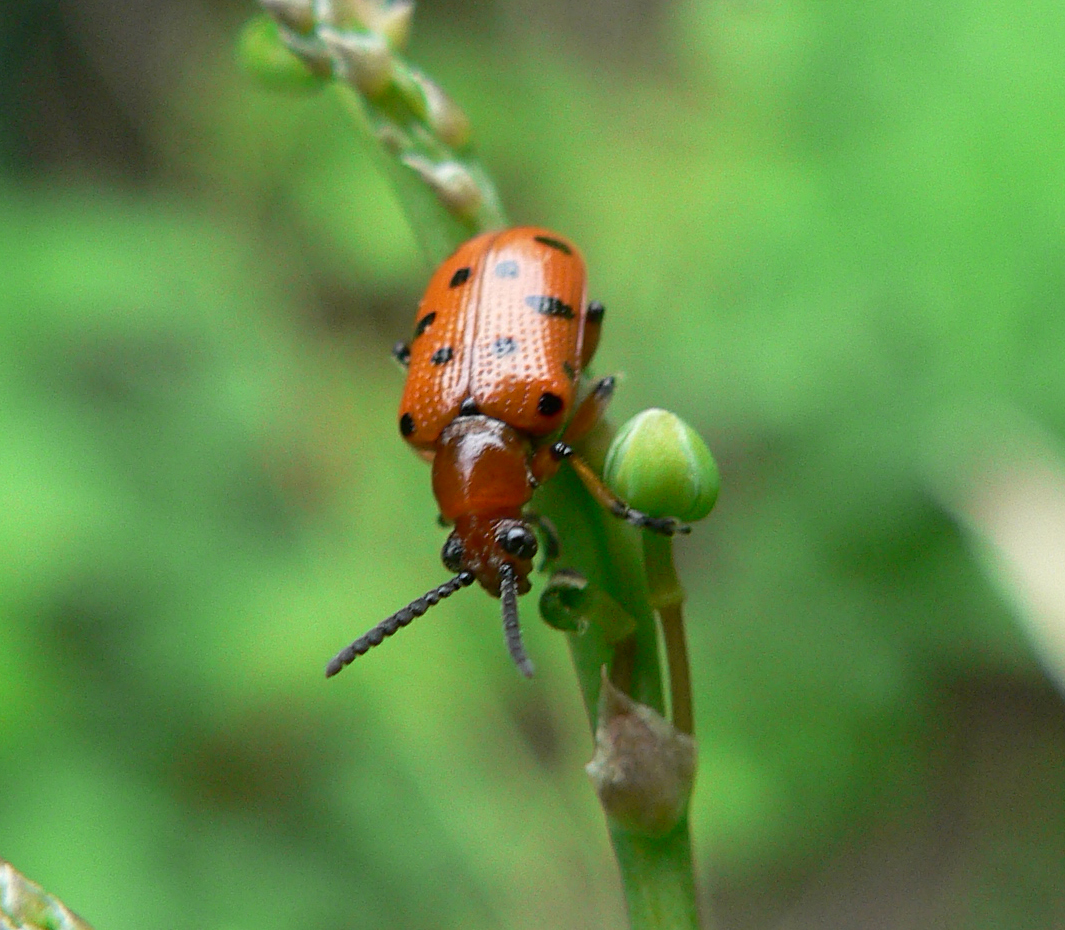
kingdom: Animalia
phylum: Arthropoda
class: Insecta
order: Coleoptera
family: Chrysomelidae
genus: Crioceris
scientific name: Crioceris duodecimpunctata
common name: Twelve-spotted asparagus beetle
